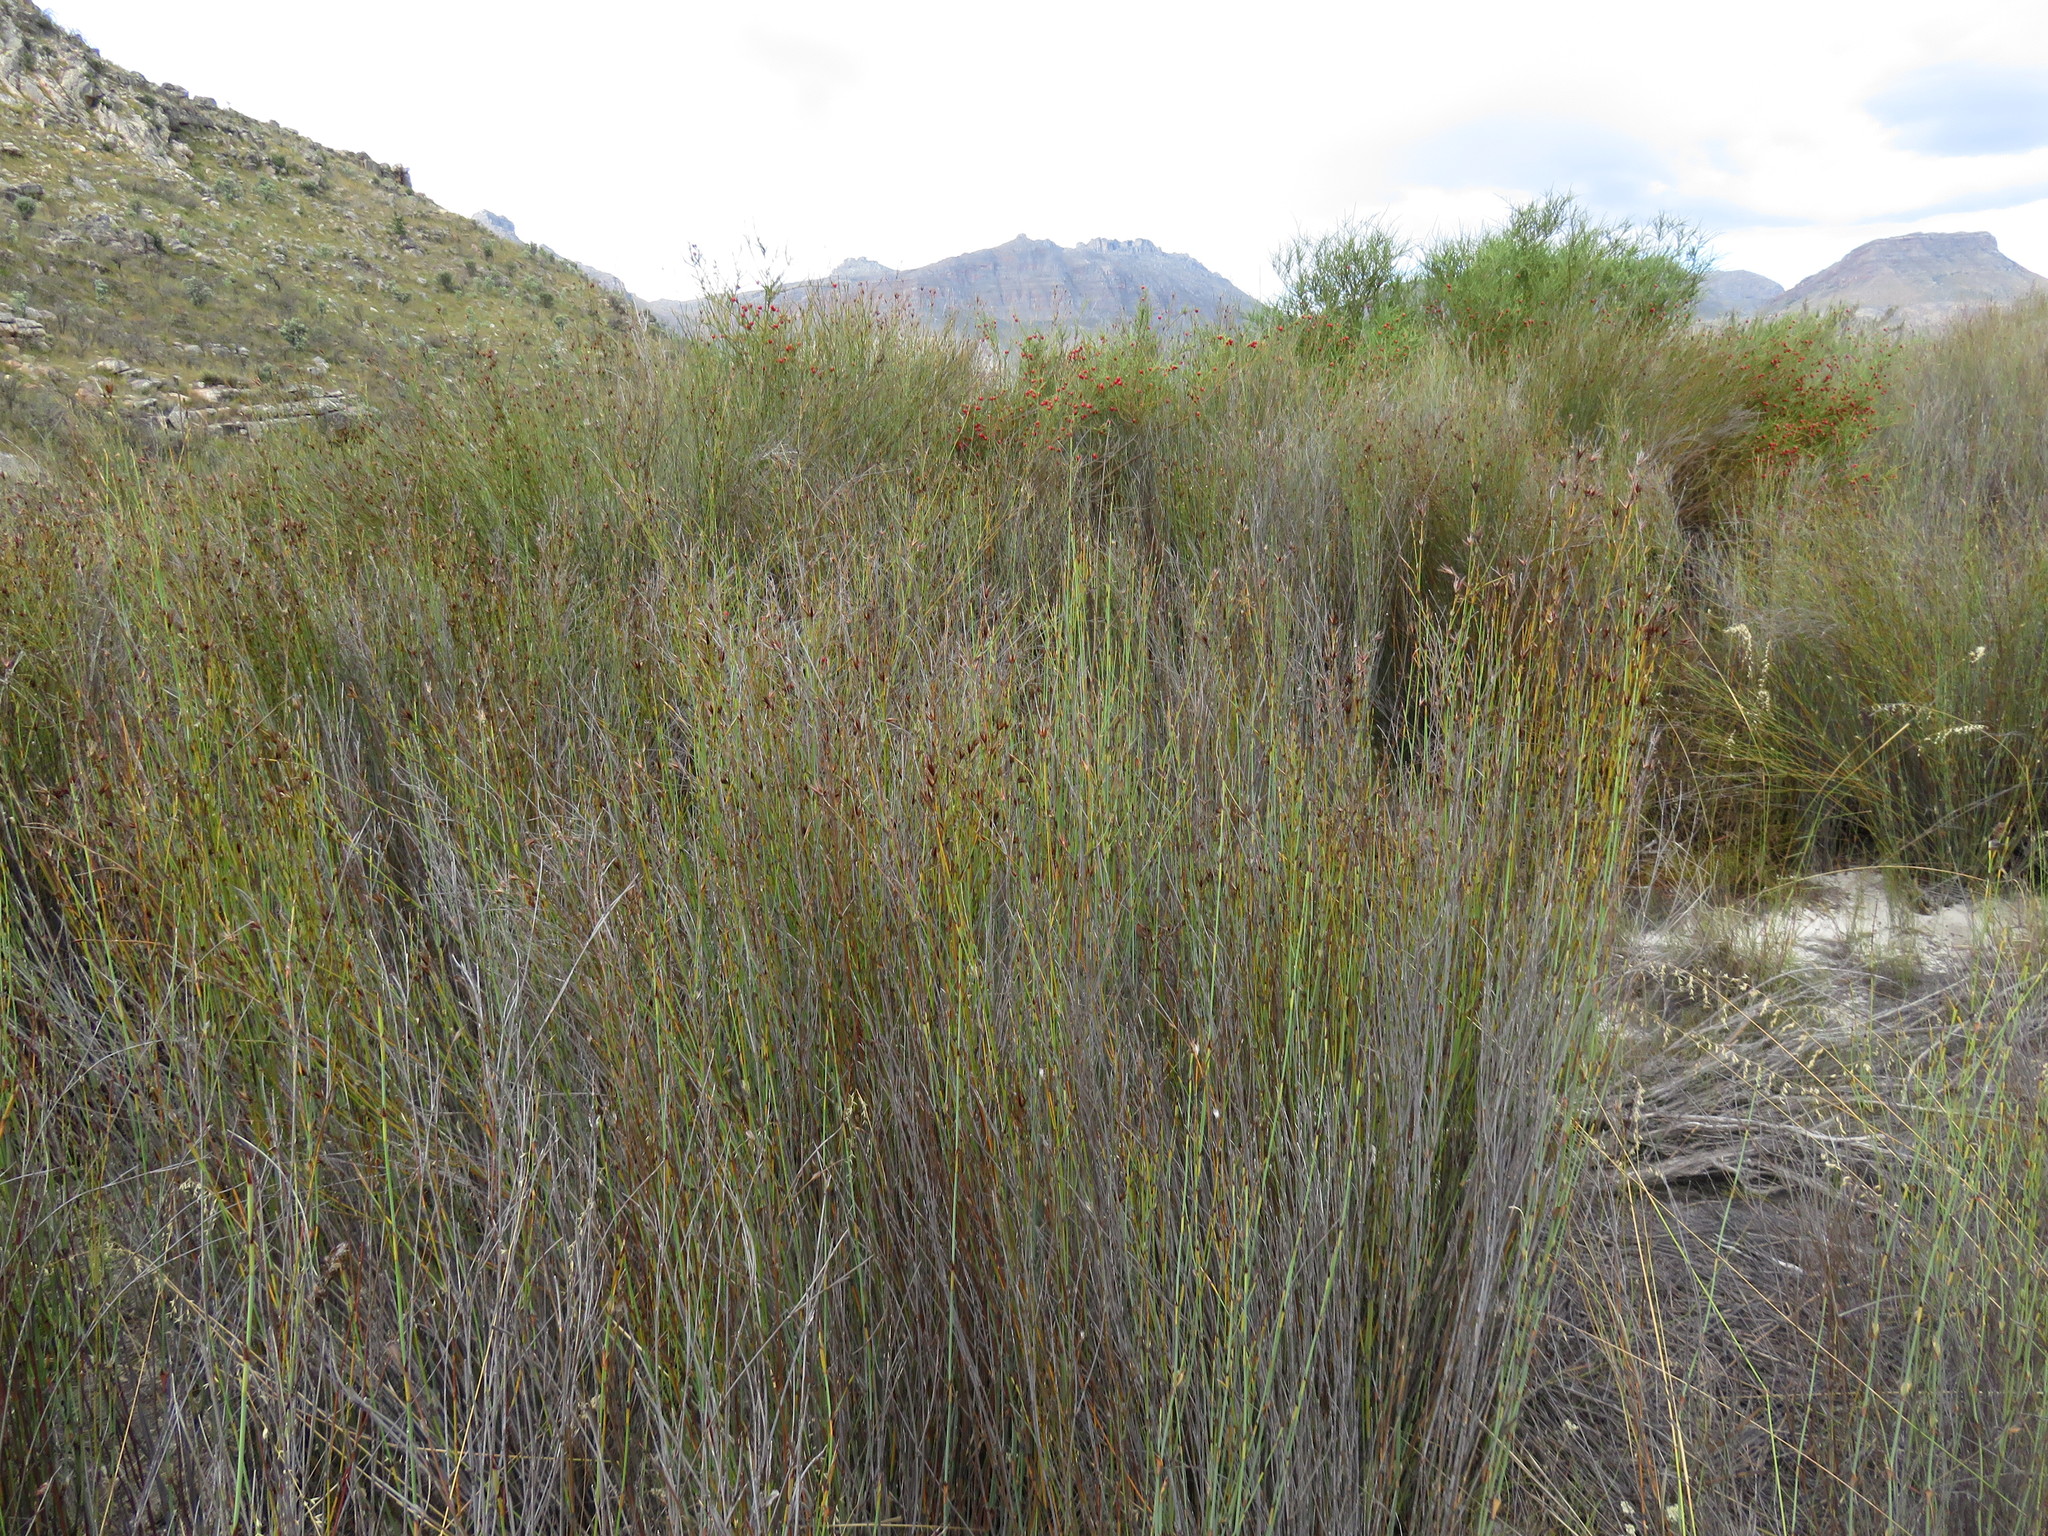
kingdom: Plantae
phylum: Tracheophyta
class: Liliopsida
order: Poales
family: Restionaceae
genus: Willdenowia
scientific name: Willdenowia incurvata
